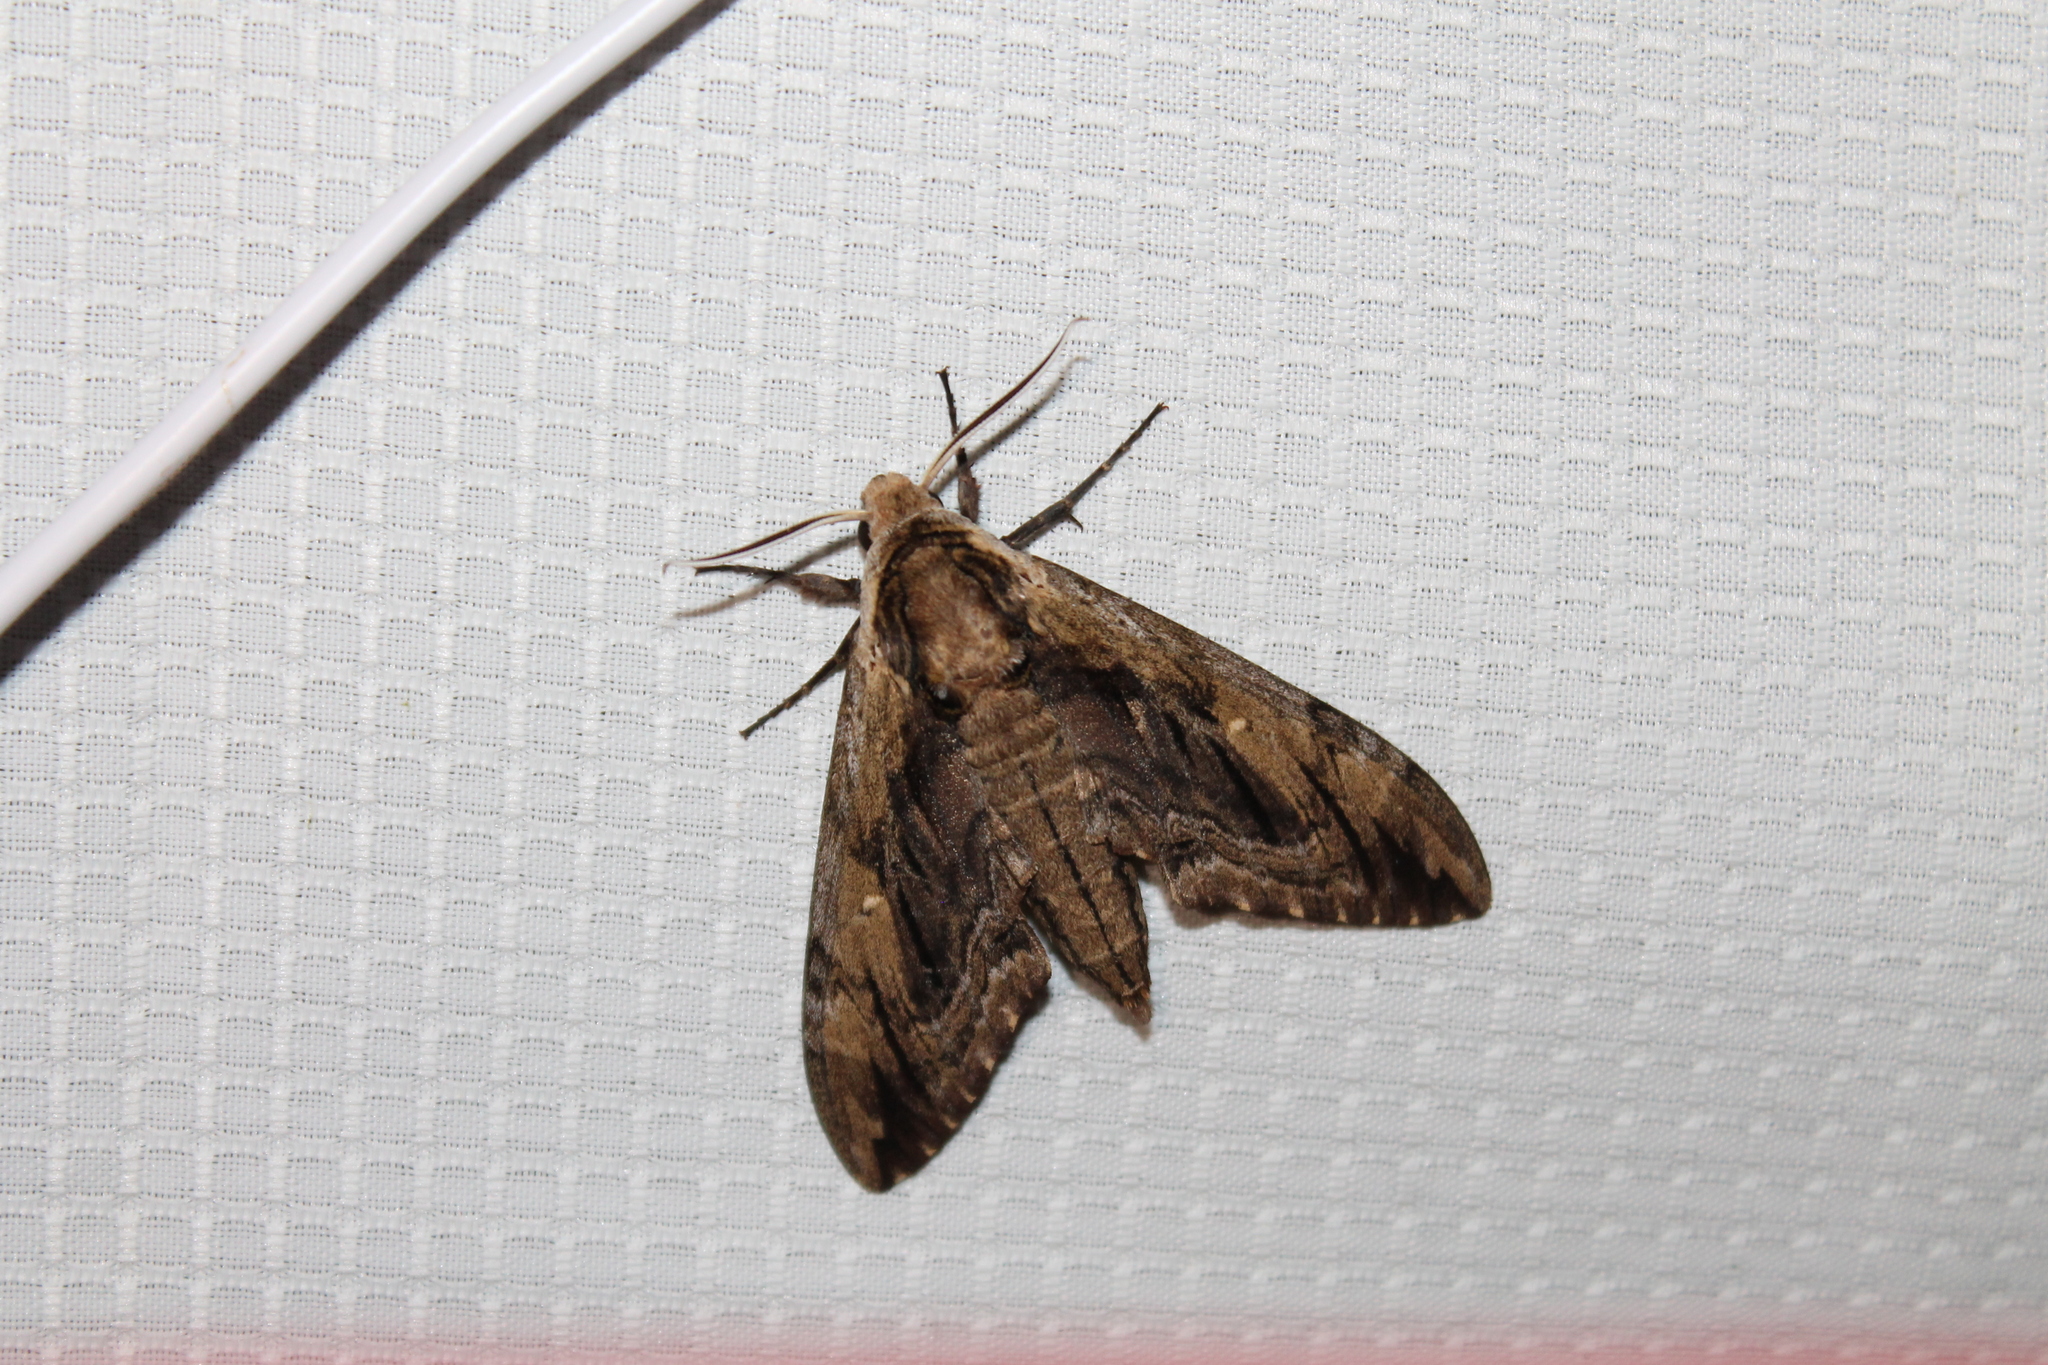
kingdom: Animalia
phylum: Arthropoda
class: Insecta
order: Lepidoptera
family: Sphingidae
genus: Ceratomia
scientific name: Ceratomia amyntor
